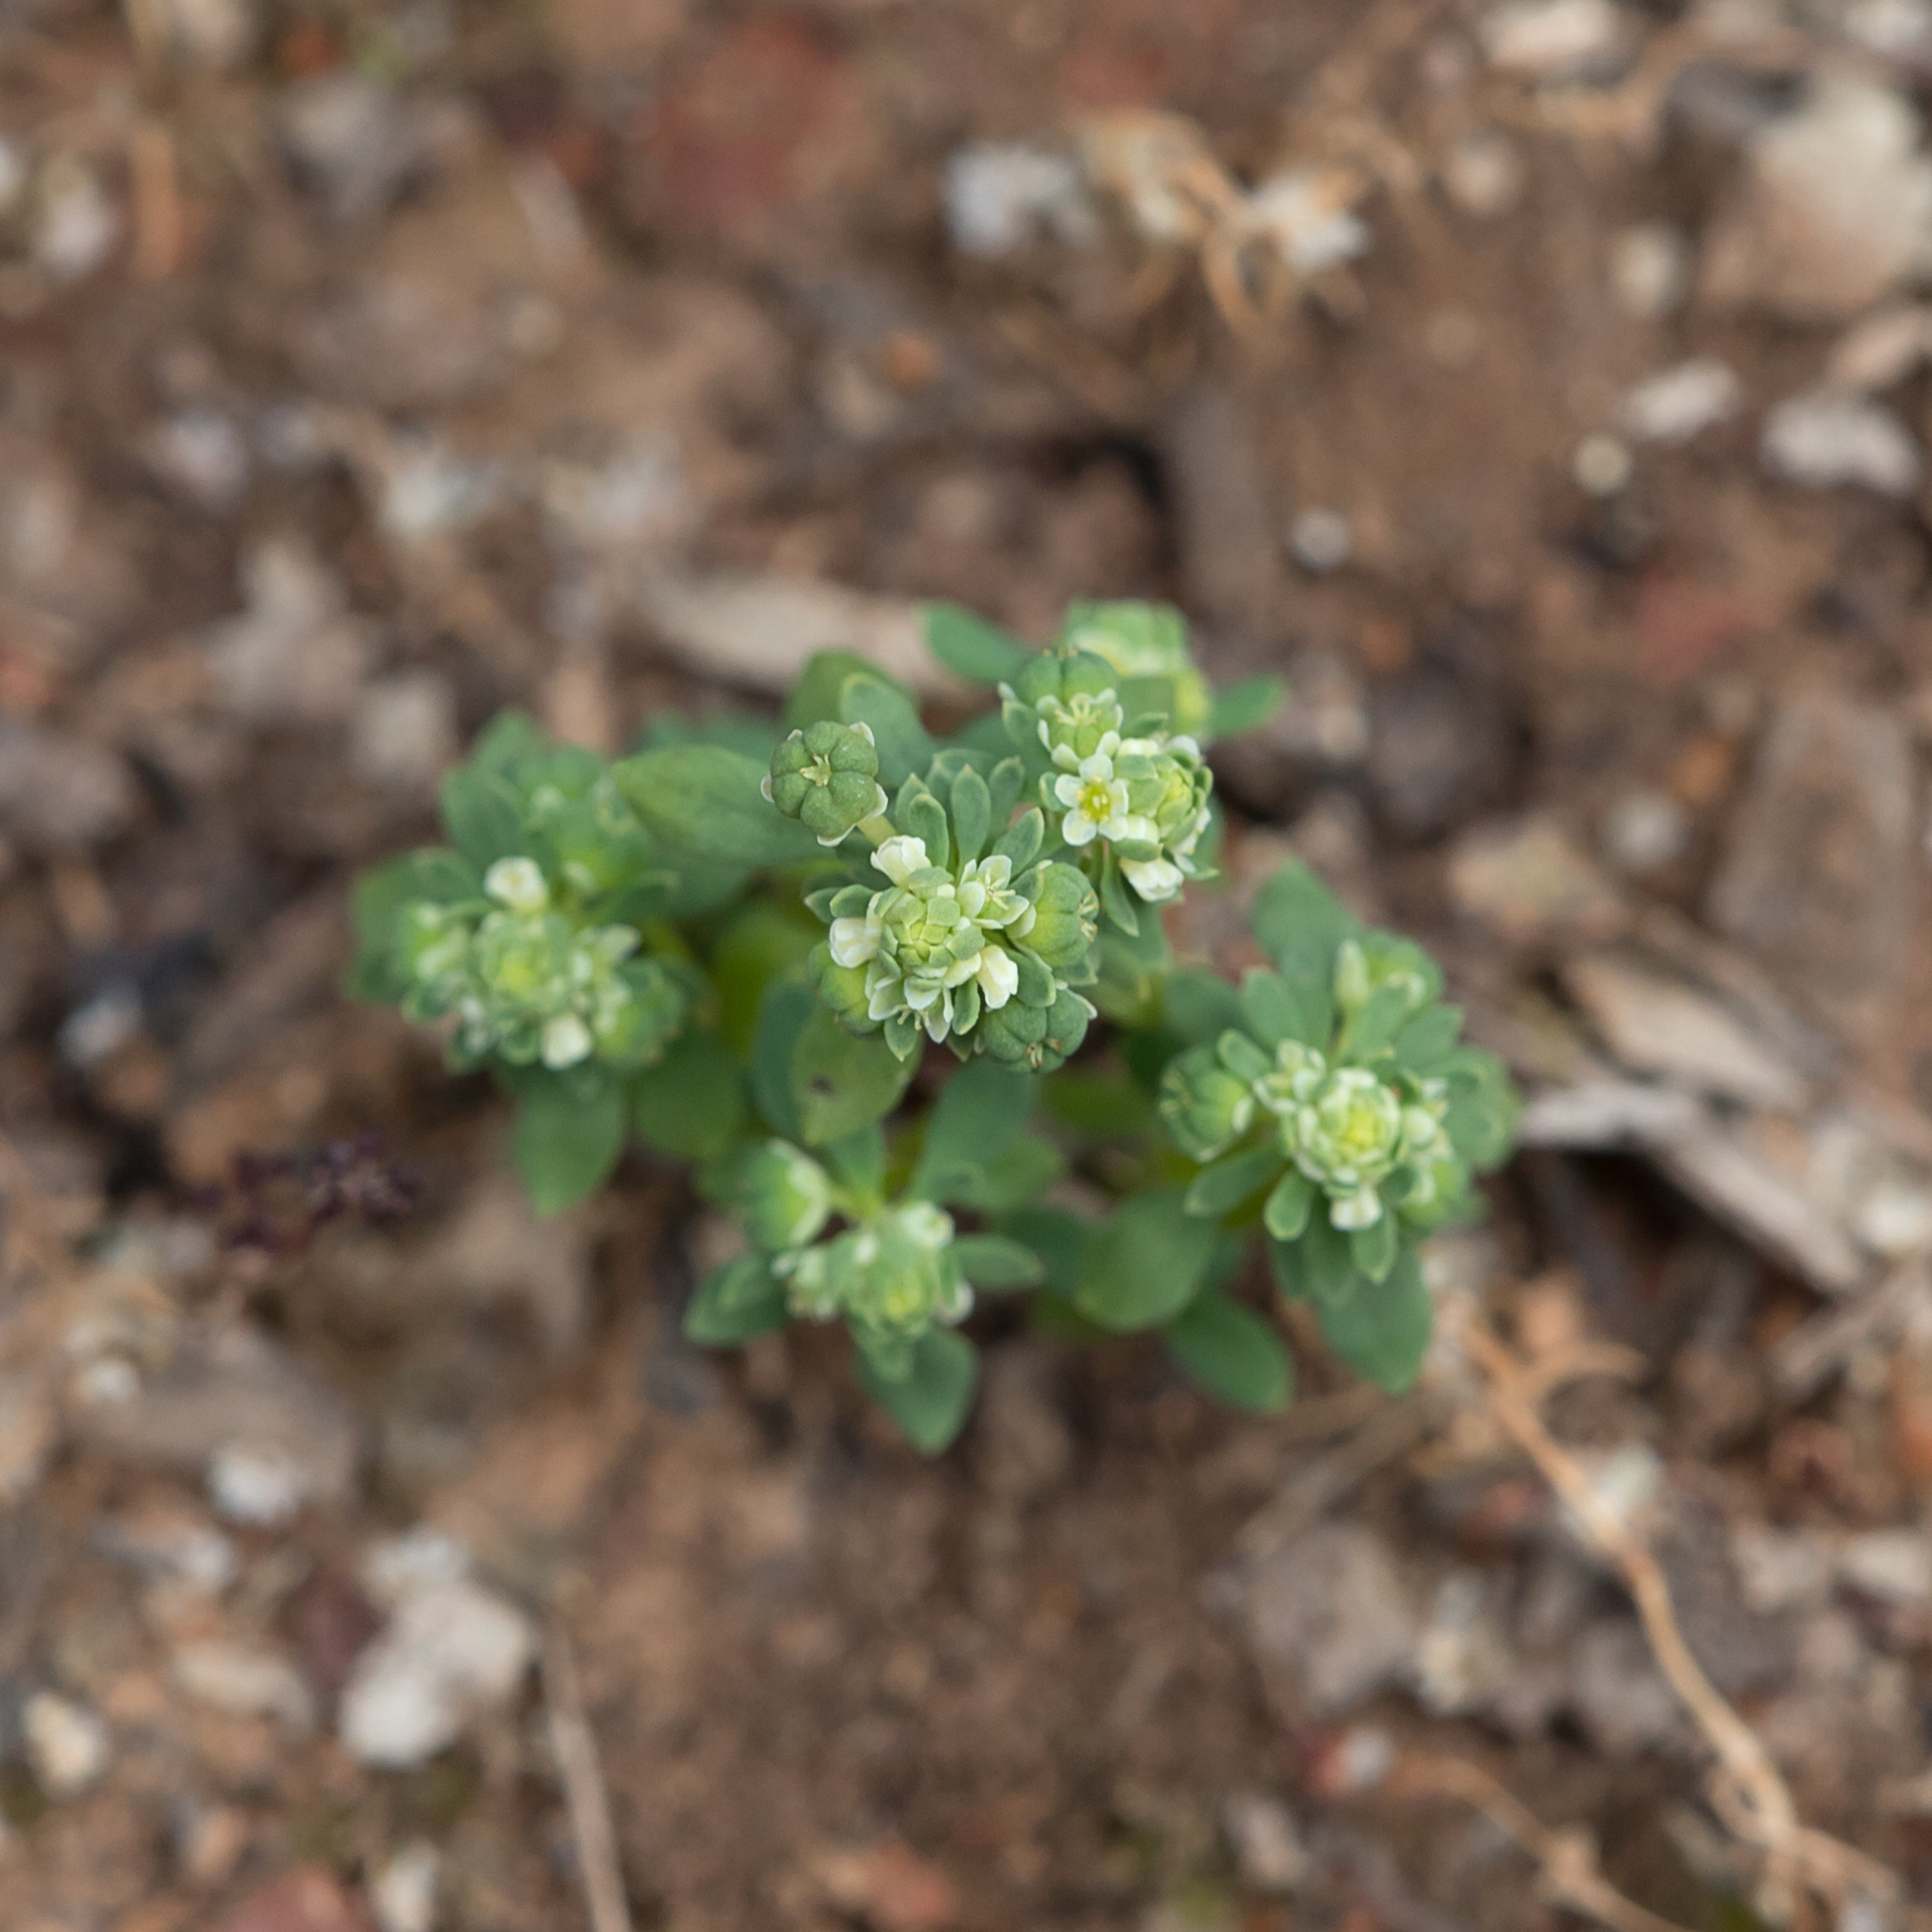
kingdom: Plantae
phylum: Tracheophyta
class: Magnoliopsida
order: Malpighiales
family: Phyllanthaceae
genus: Poranthera
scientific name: Poranthera microphylla
